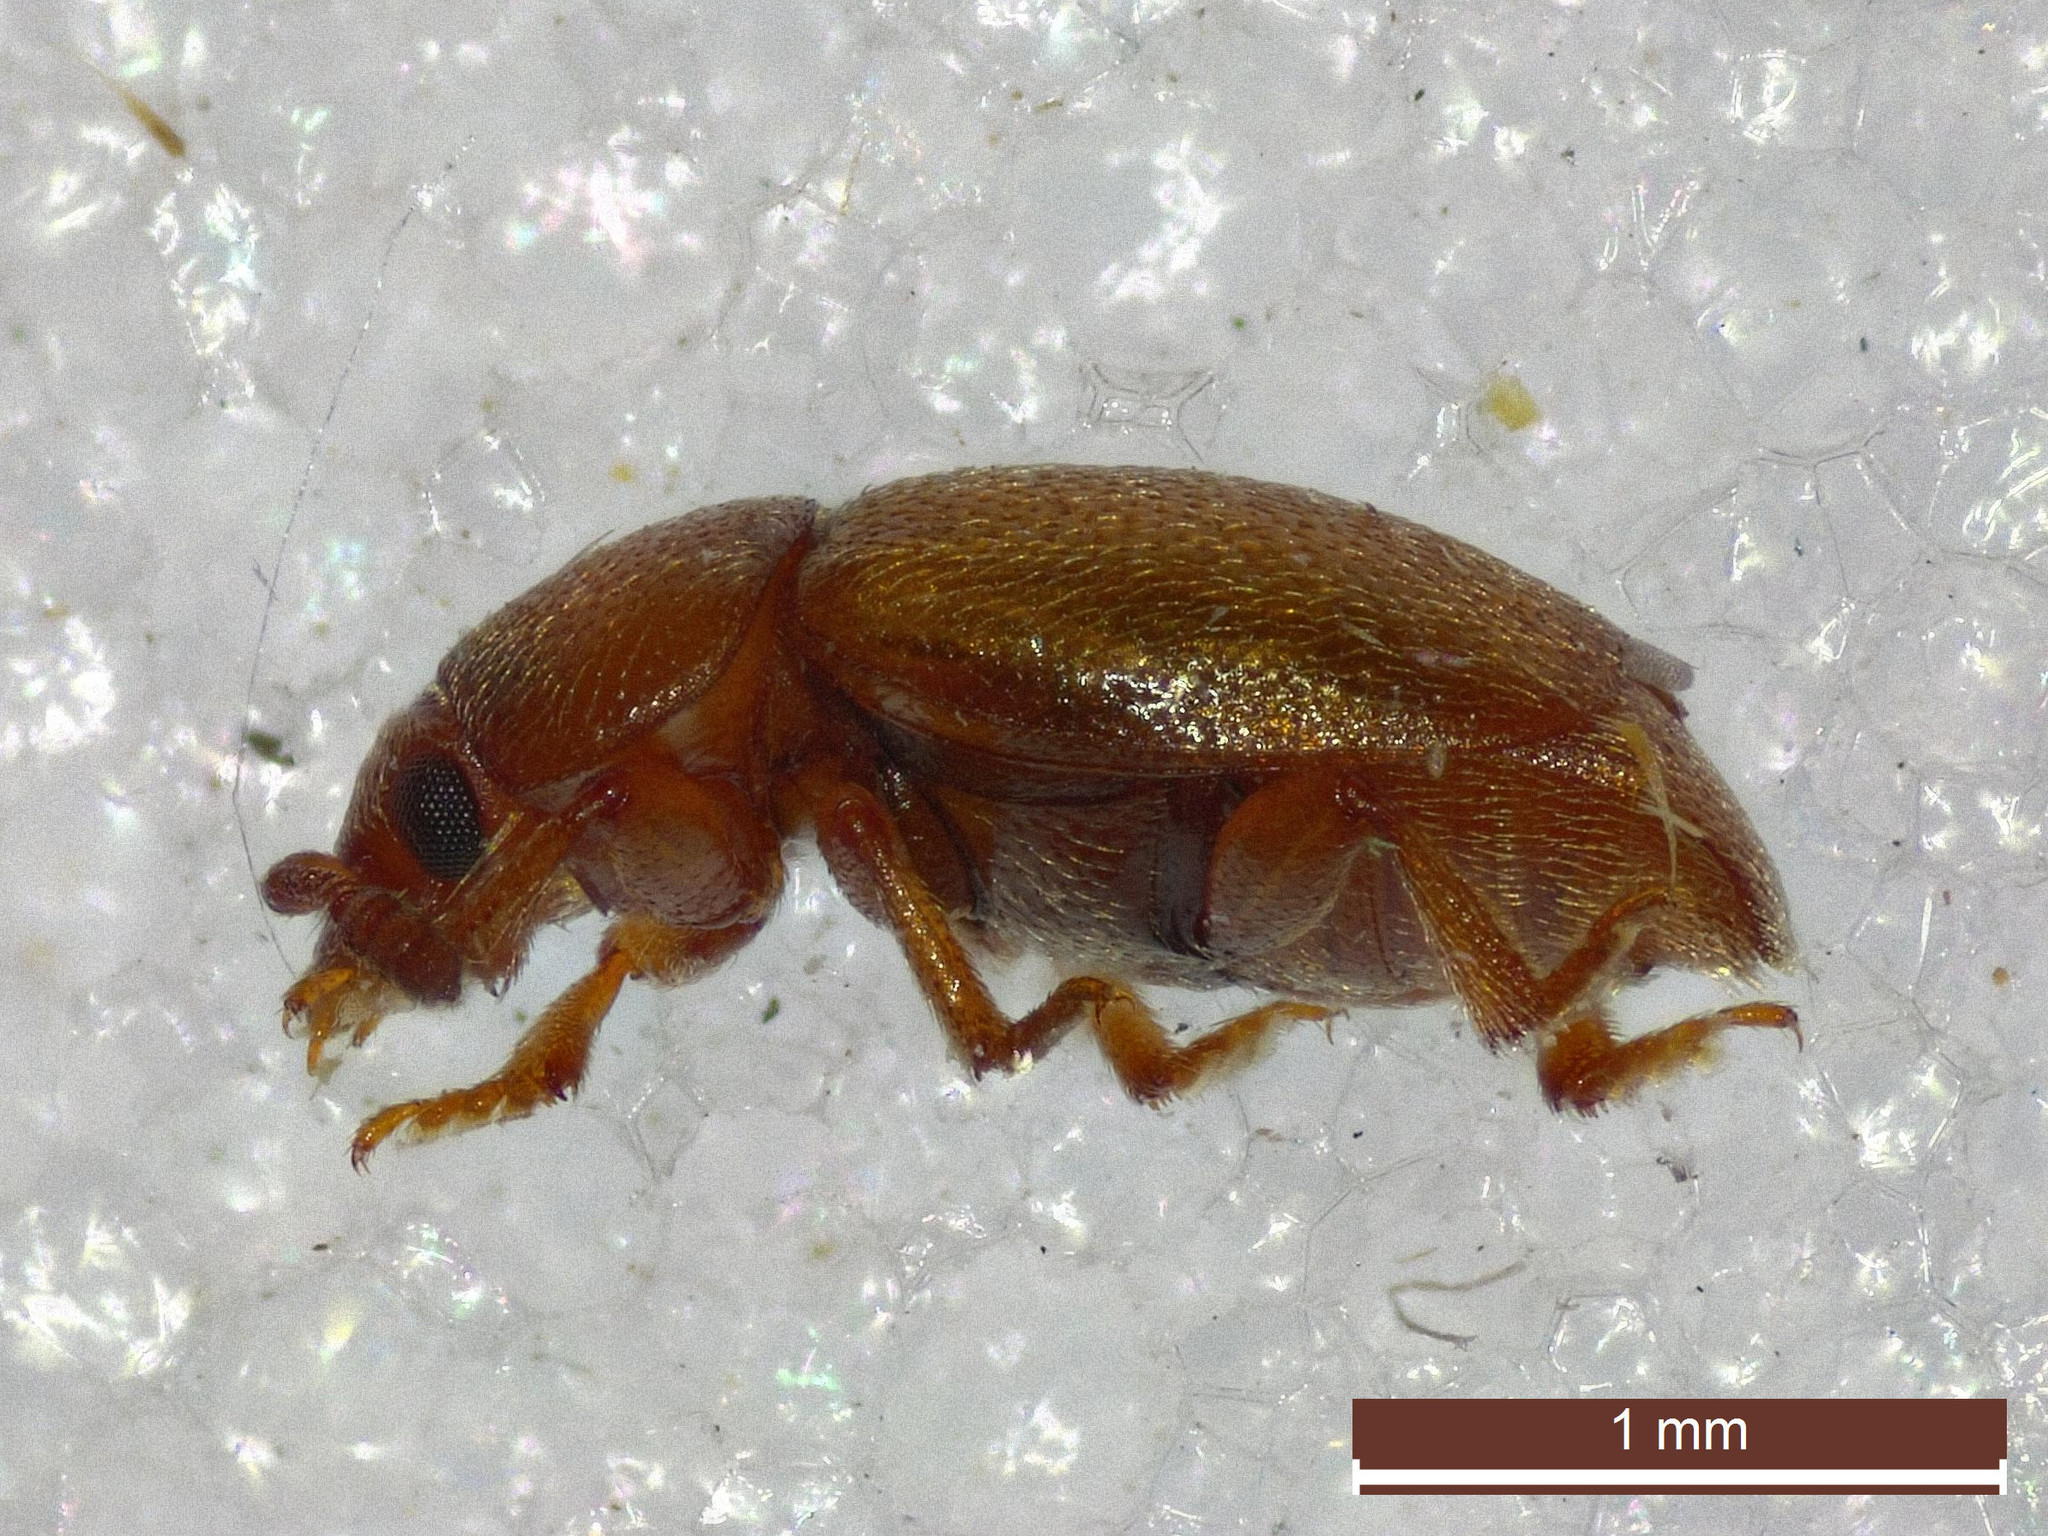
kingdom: Animalia
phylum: Arthropoda
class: Insecta
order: Coleoptera
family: Kateretidae
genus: Kateretes
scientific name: Kateretes pedicularius
